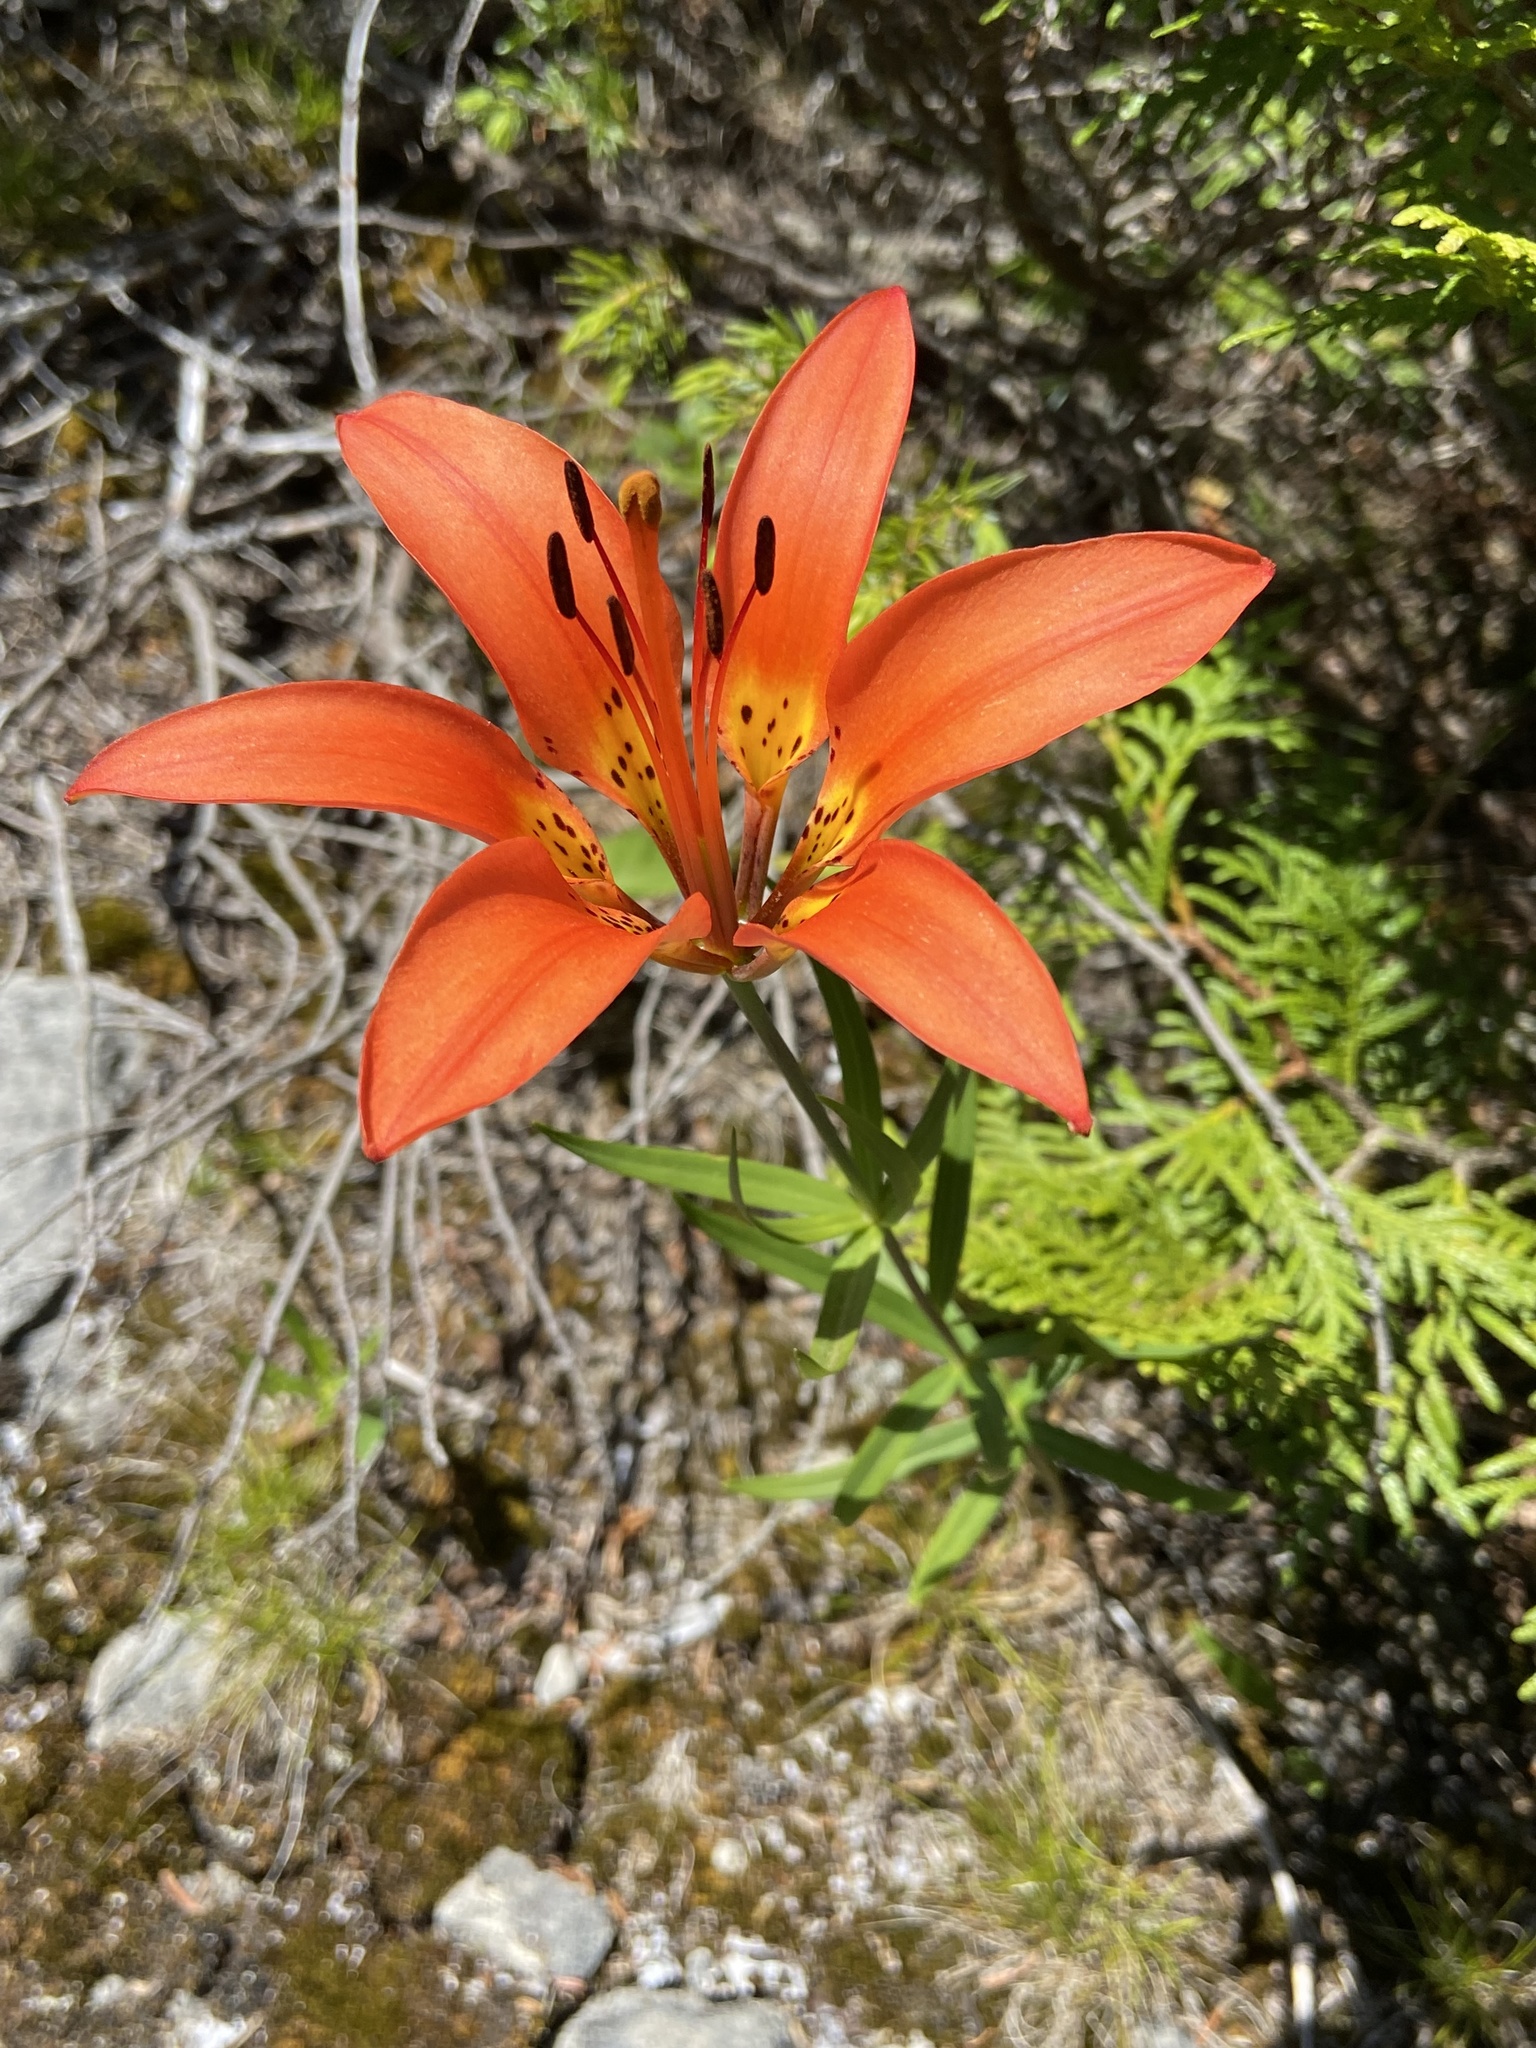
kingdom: Plantae
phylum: Tracheophyta
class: Liliopsida
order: Liliales
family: Liliaceae
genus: Lilium
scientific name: Lilium philadelphicum
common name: Red lily
